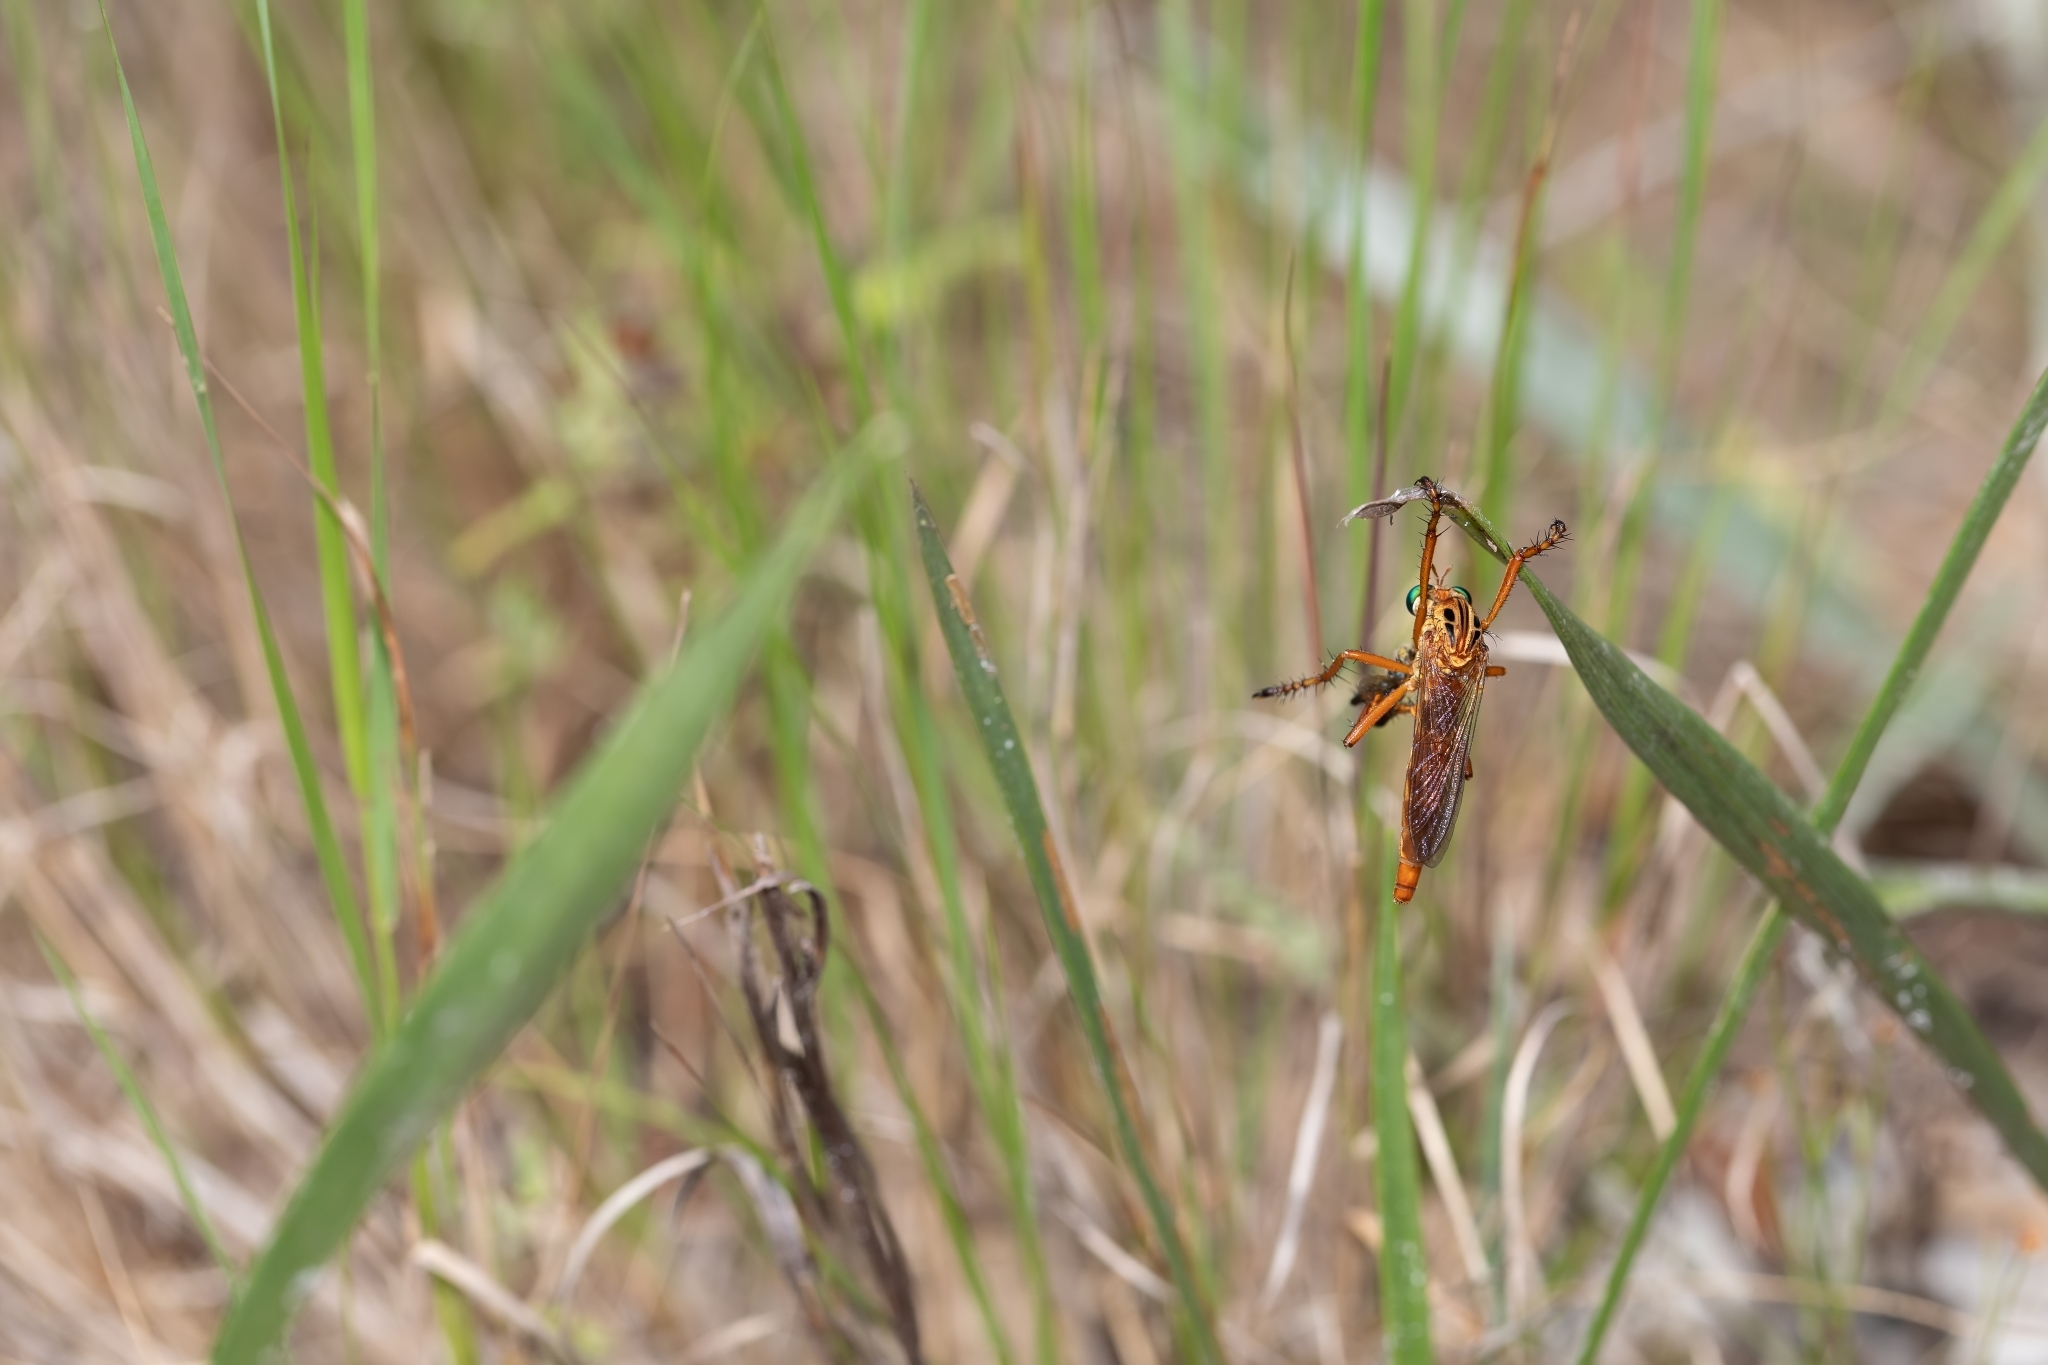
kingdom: Animalia
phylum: Arthropoda
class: Insecta
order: Diptera
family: Asilidae
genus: Diogmites
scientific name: Diogmites esuriens
